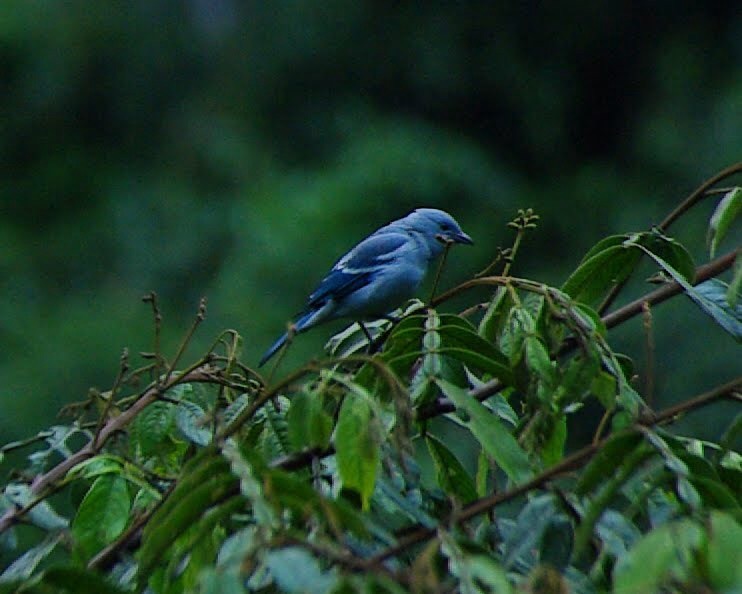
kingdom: Animalia
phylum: Chordata
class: Aves
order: Passeriformes
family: Thraupidae
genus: Thraupis
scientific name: Thraupis episcopus
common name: Blue-grey tanager
